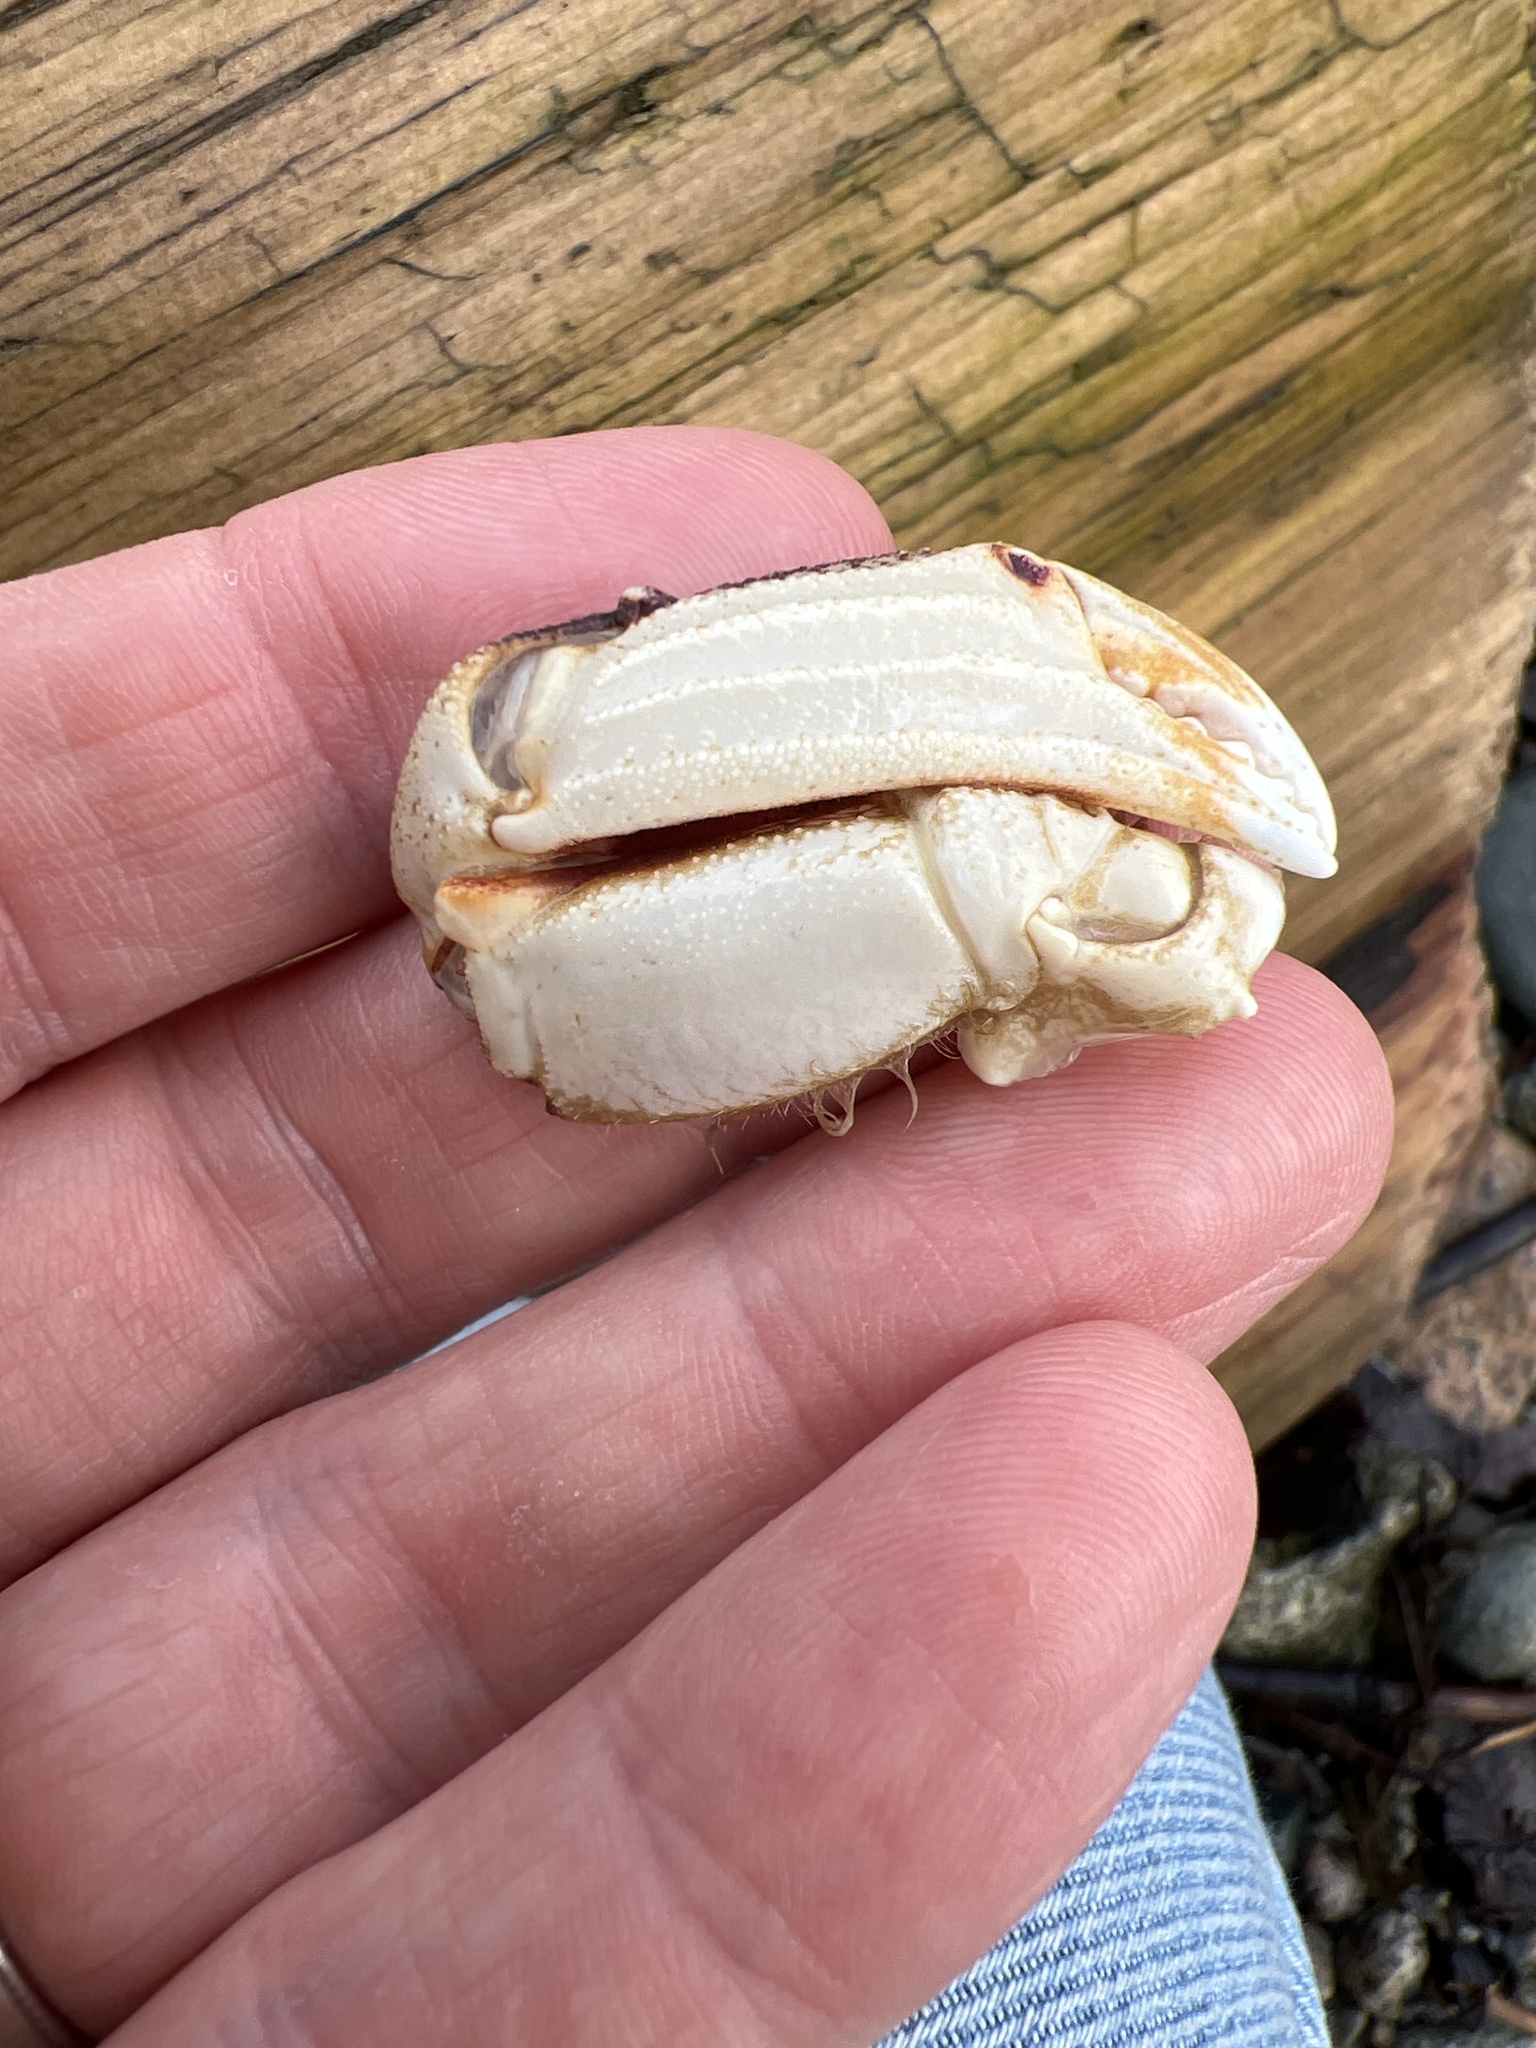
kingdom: Animalia
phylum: Arthropoda
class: Malacostraca
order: Decapoda
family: Cancridae
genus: Metacarcinus
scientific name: Metacarcinus magister
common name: Californian crab
